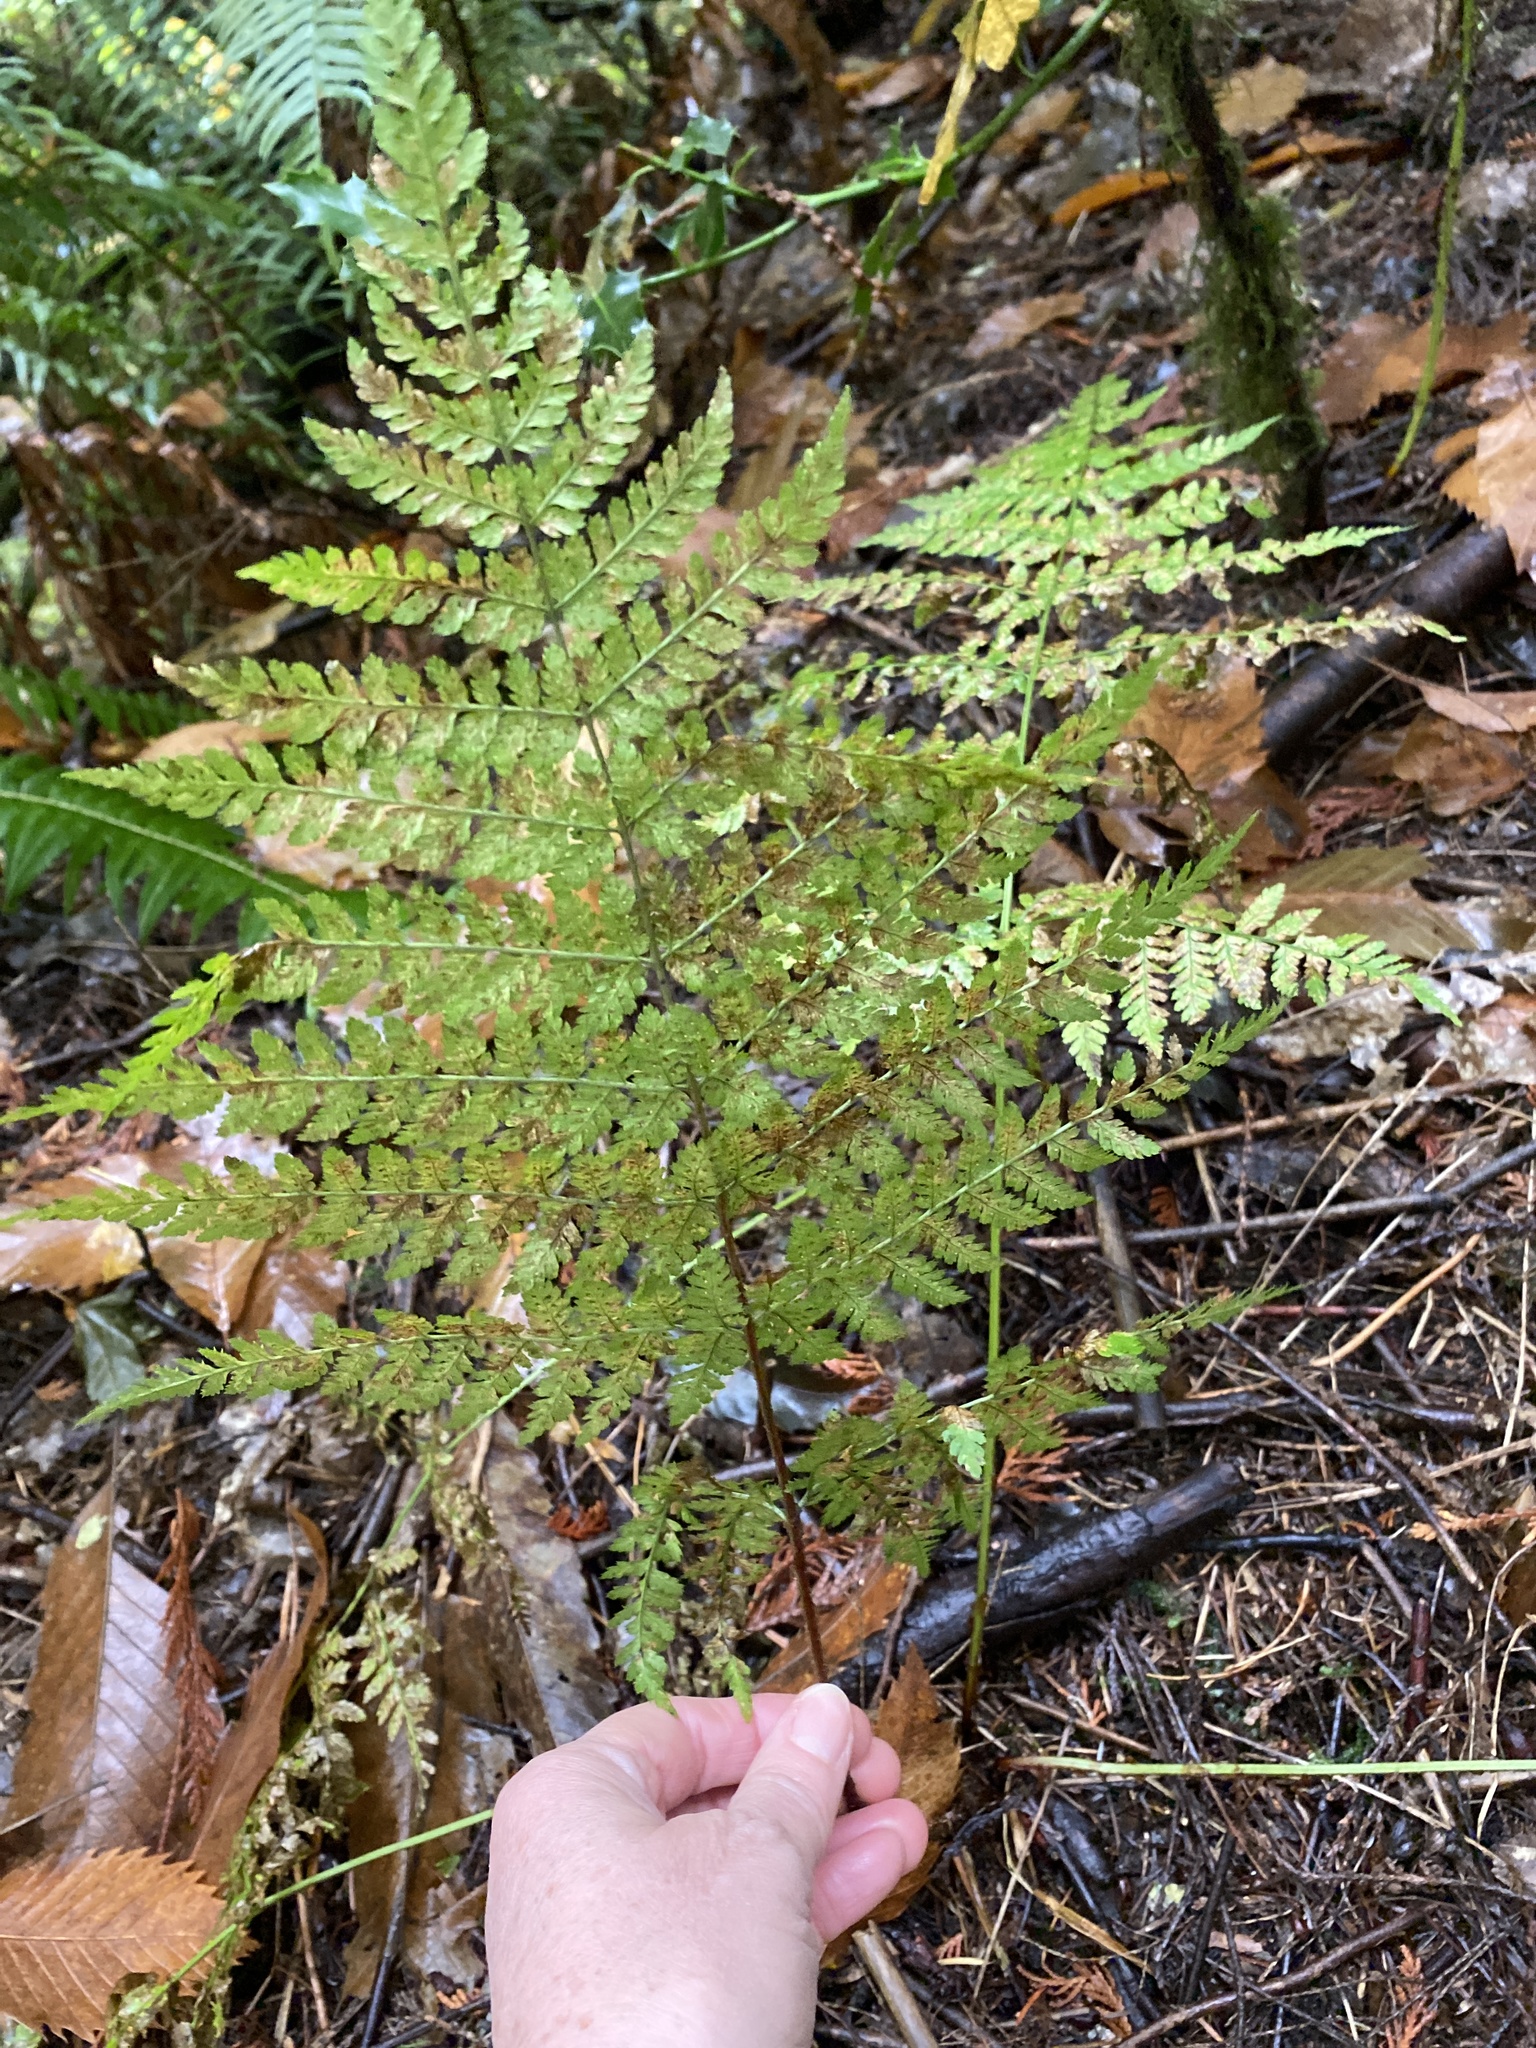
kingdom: Plantae
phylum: Tracheophyta
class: Polypodiopsida
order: Polypodiales
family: Dryopteridaceae
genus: Dryopteris
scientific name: Dryopteris expansa
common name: Northern buckler fern
